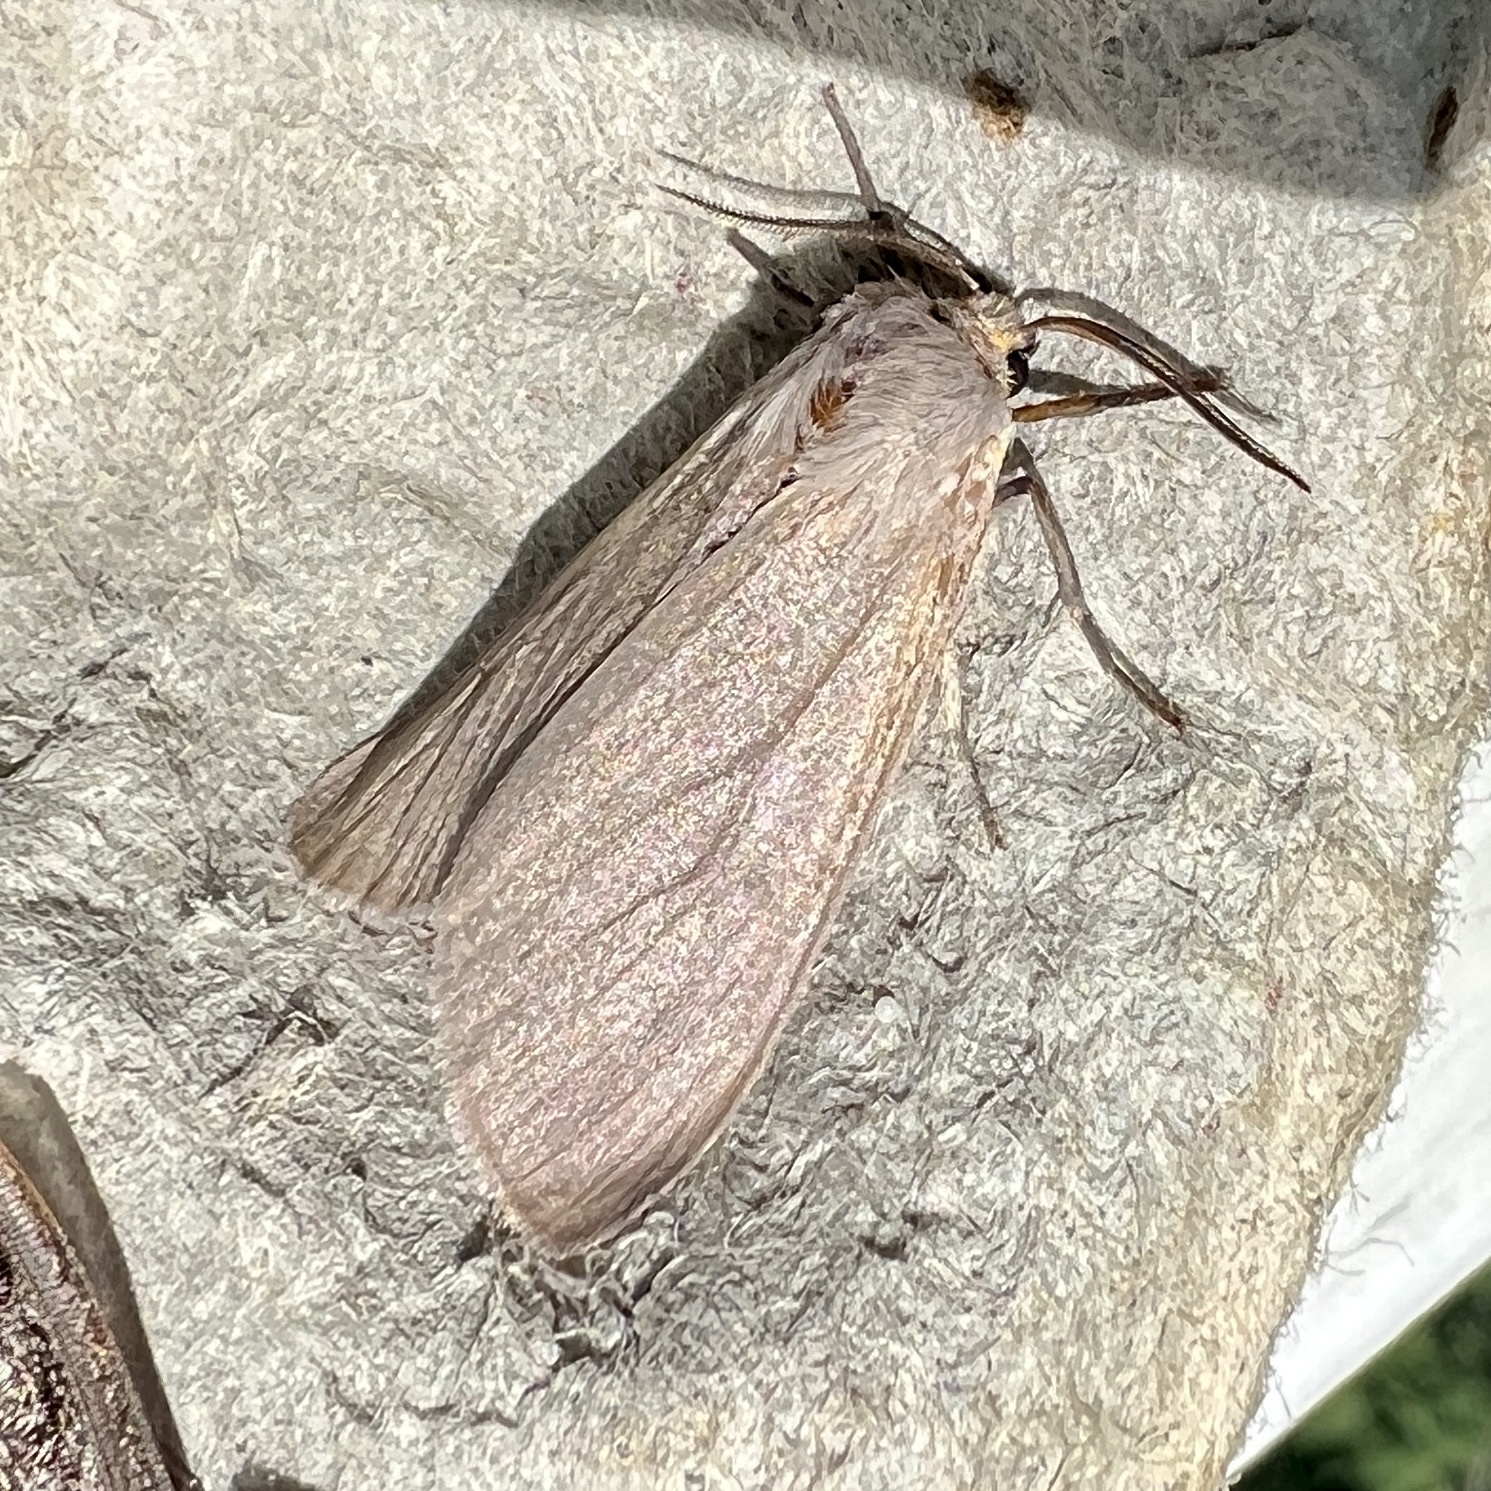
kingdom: Animalia
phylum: Arthropoda
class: Insecta
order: Lepidoptera
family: Erebidae
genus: Euchaetes
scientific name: Euchaetes egle
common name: Milkweed tussock moth
